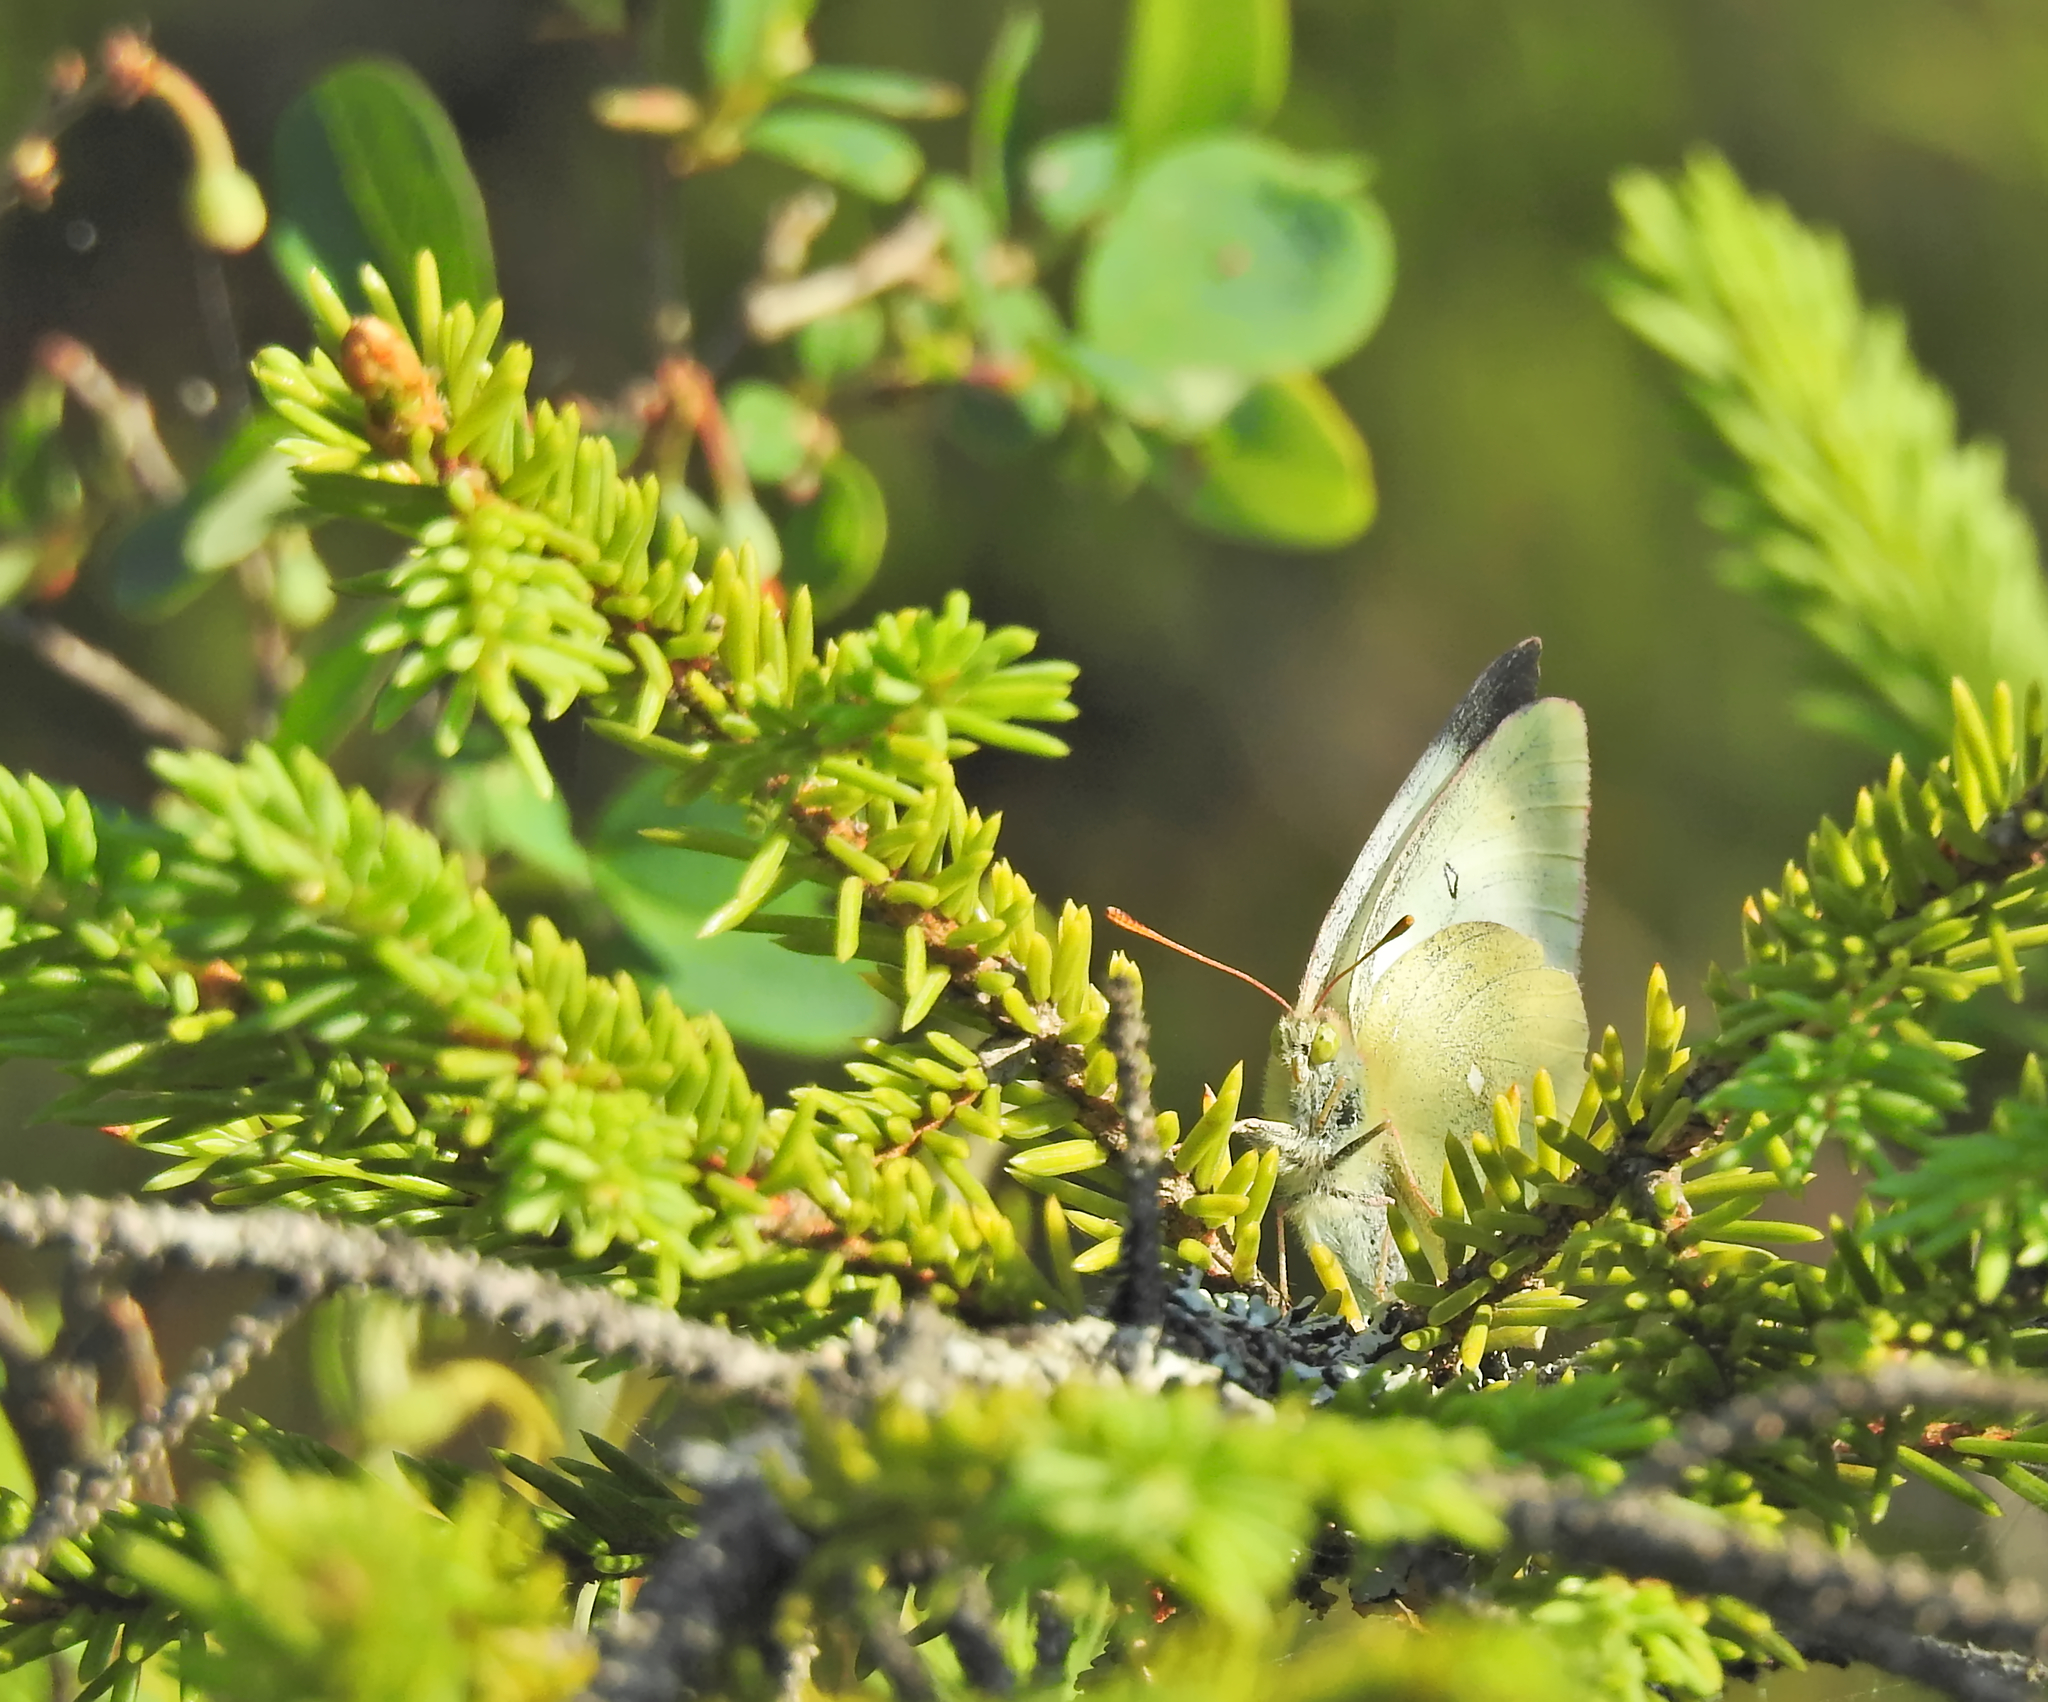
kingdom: Animalia
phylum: Arthropoda
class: Insecta
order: Lepidoptera
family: Pieridae
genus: Colias
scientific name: Colias palaeno
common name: Moorland clouded yellow
